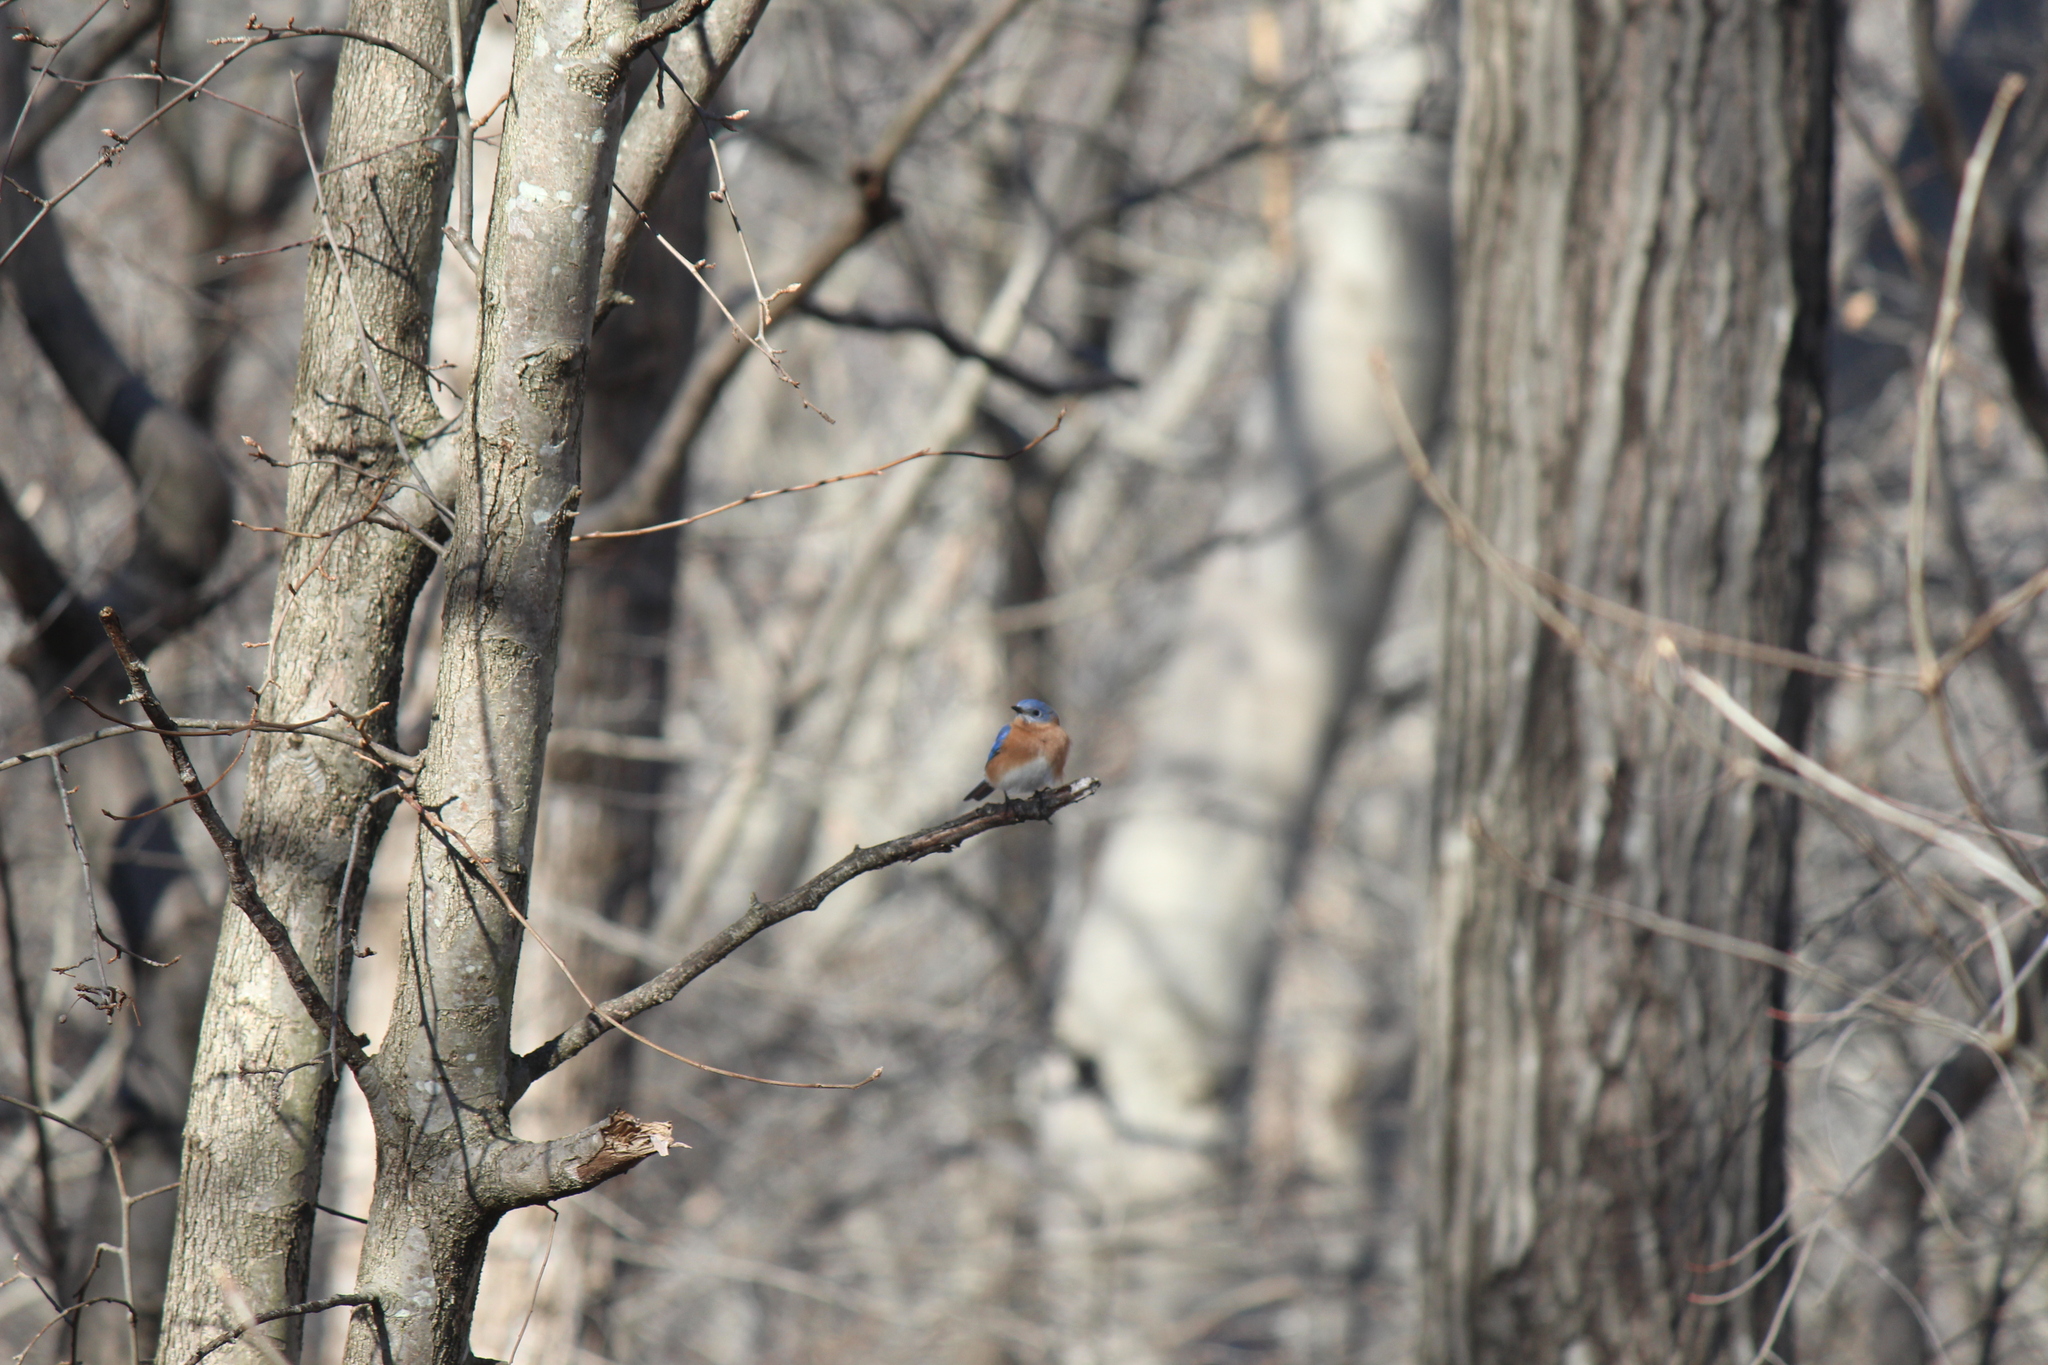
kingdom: Animalia
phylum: Chordata
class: Aves
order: Passeriformes
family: Turdidae
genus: Sialia
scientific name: Sialia sialis
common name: Eastern bluebird
